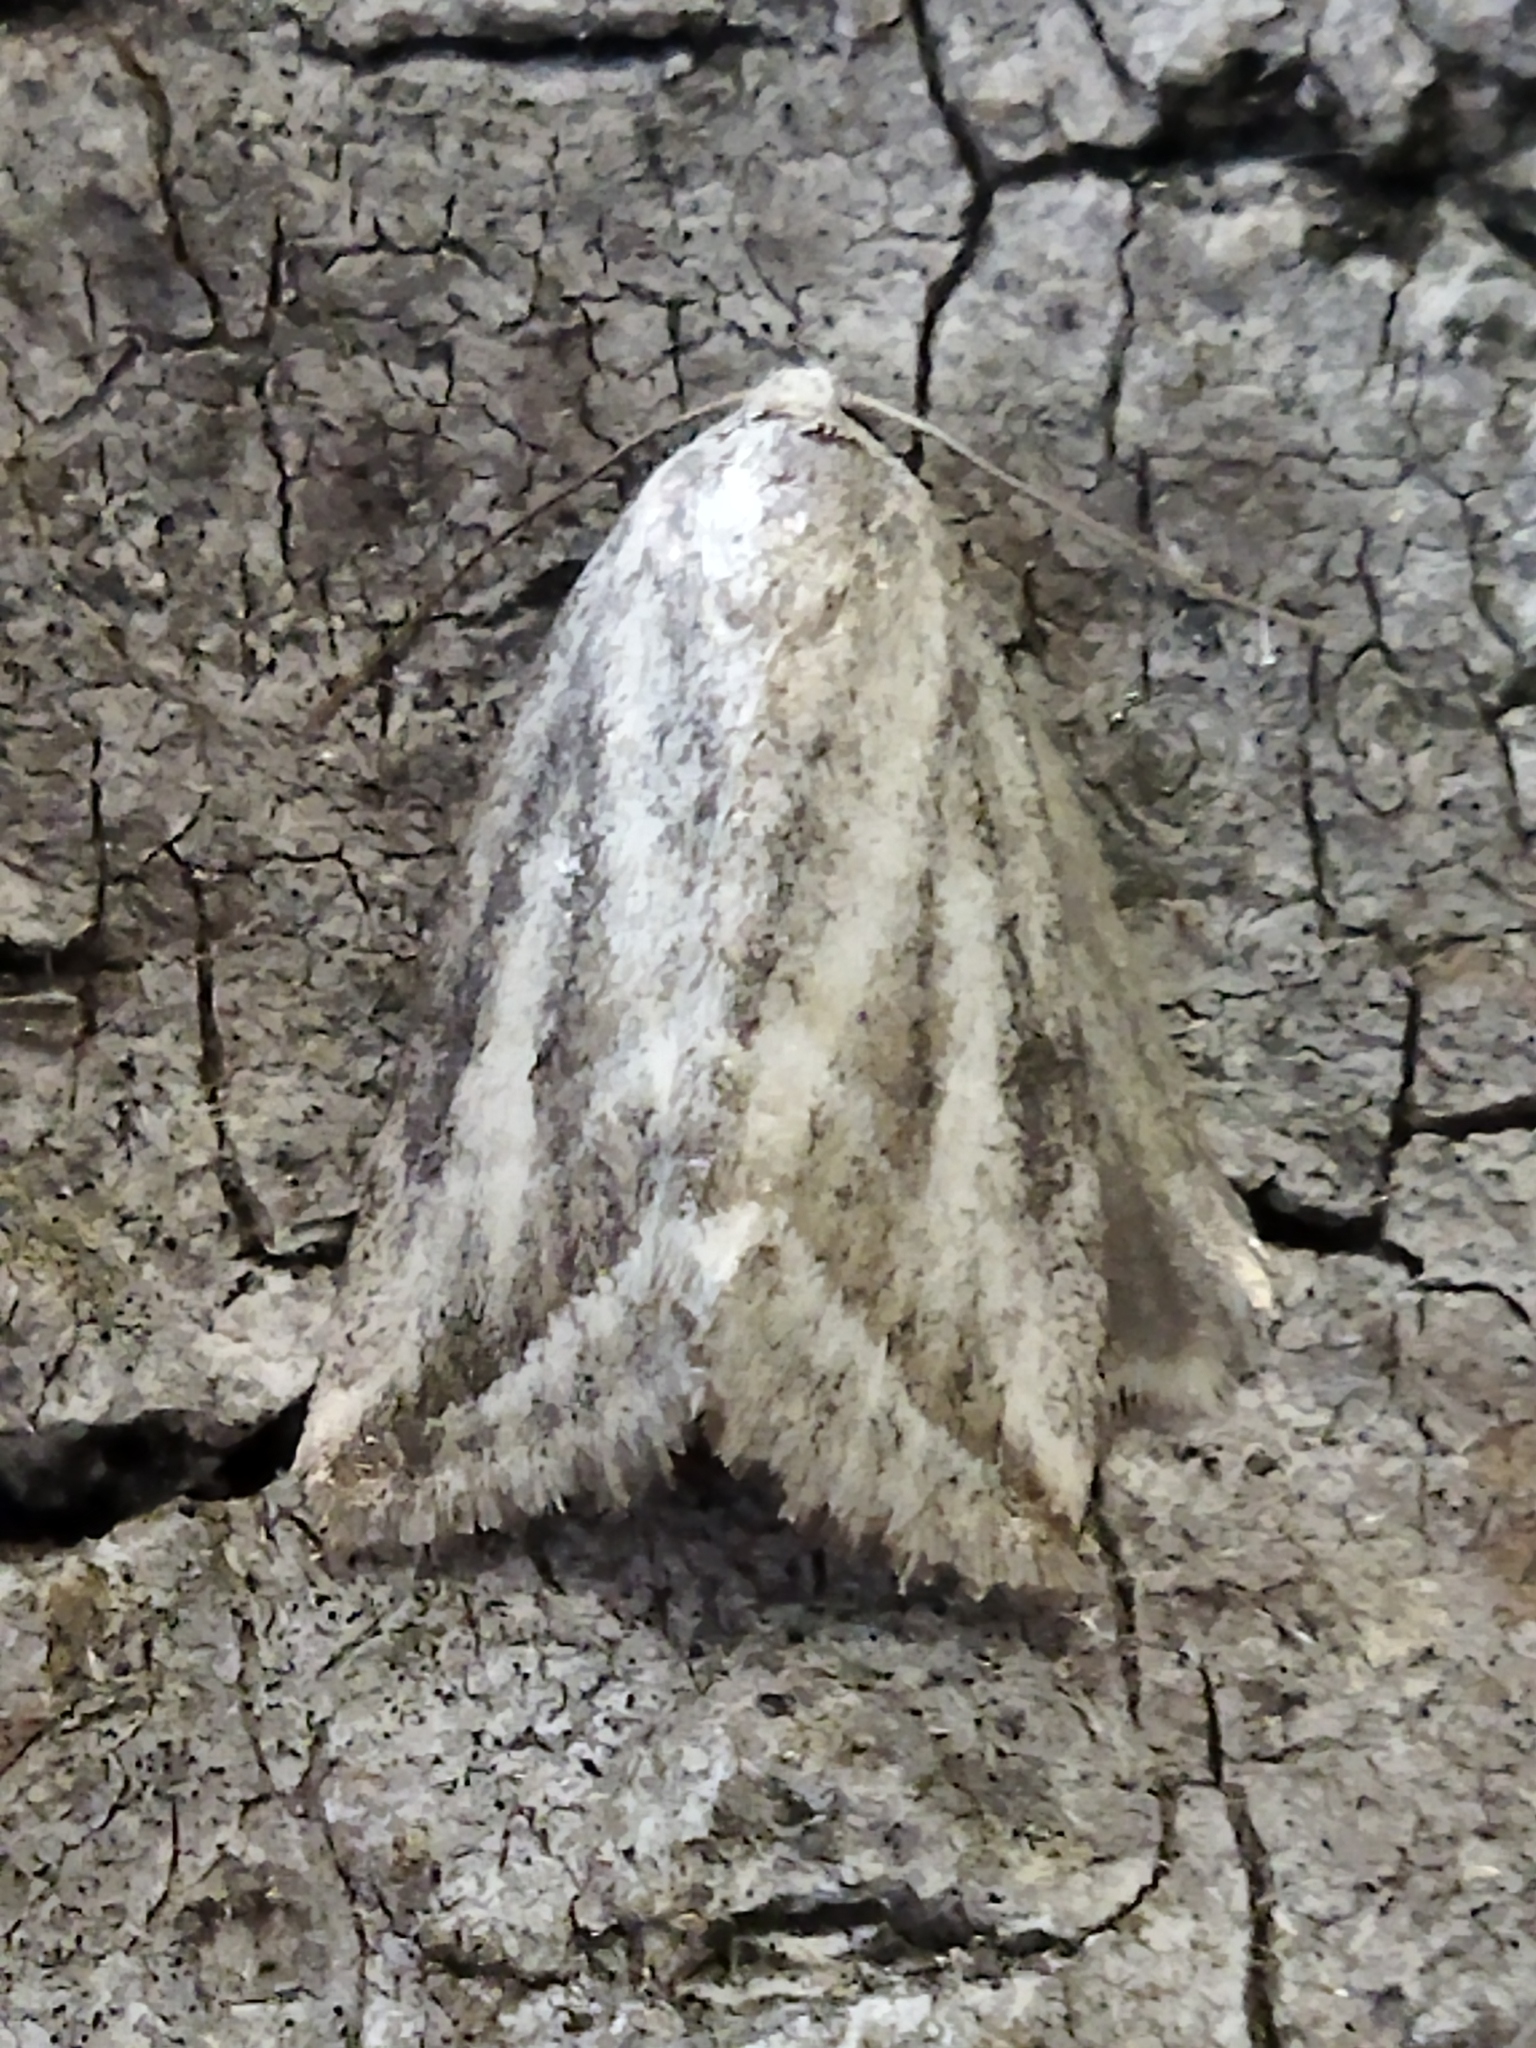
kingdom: Animalia
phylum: Arthropoda
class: Insecta
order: Lepidoptera
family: Noctuidae
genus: Phyllophila
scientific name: Phyllophila obliterata
